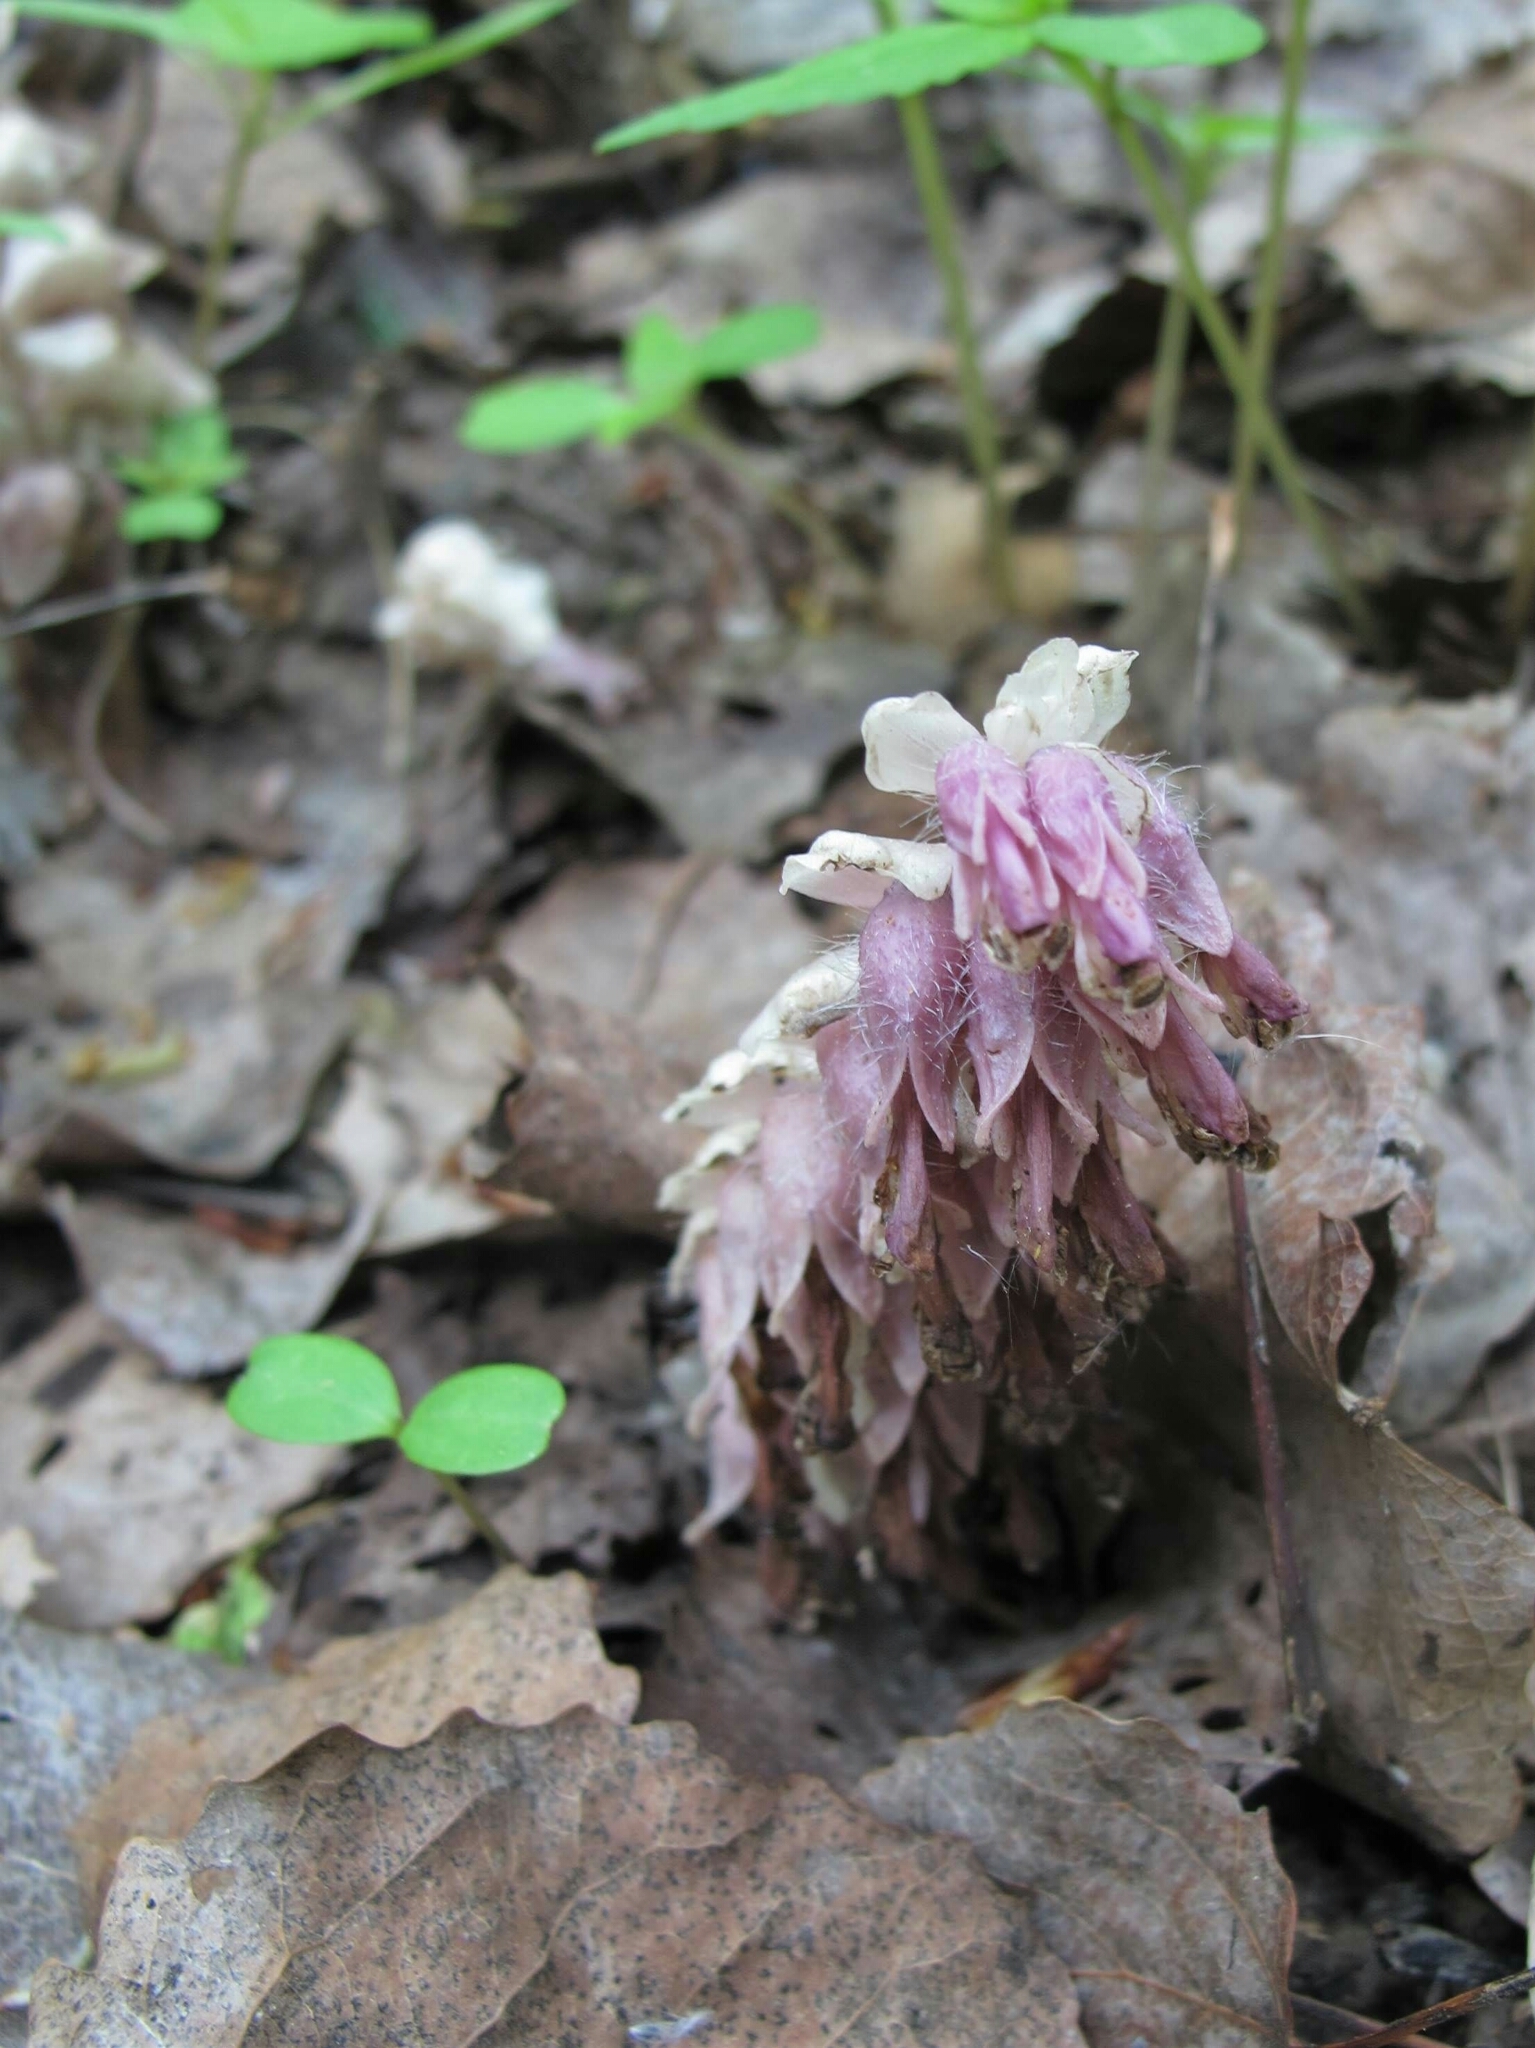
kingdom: Plantae
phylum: Tracheophyta
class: Magnoliopsida
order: Lamiales
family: Orobanchaceae
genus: Lathraea
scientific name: Lathraea squamaria
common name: Toothwort
